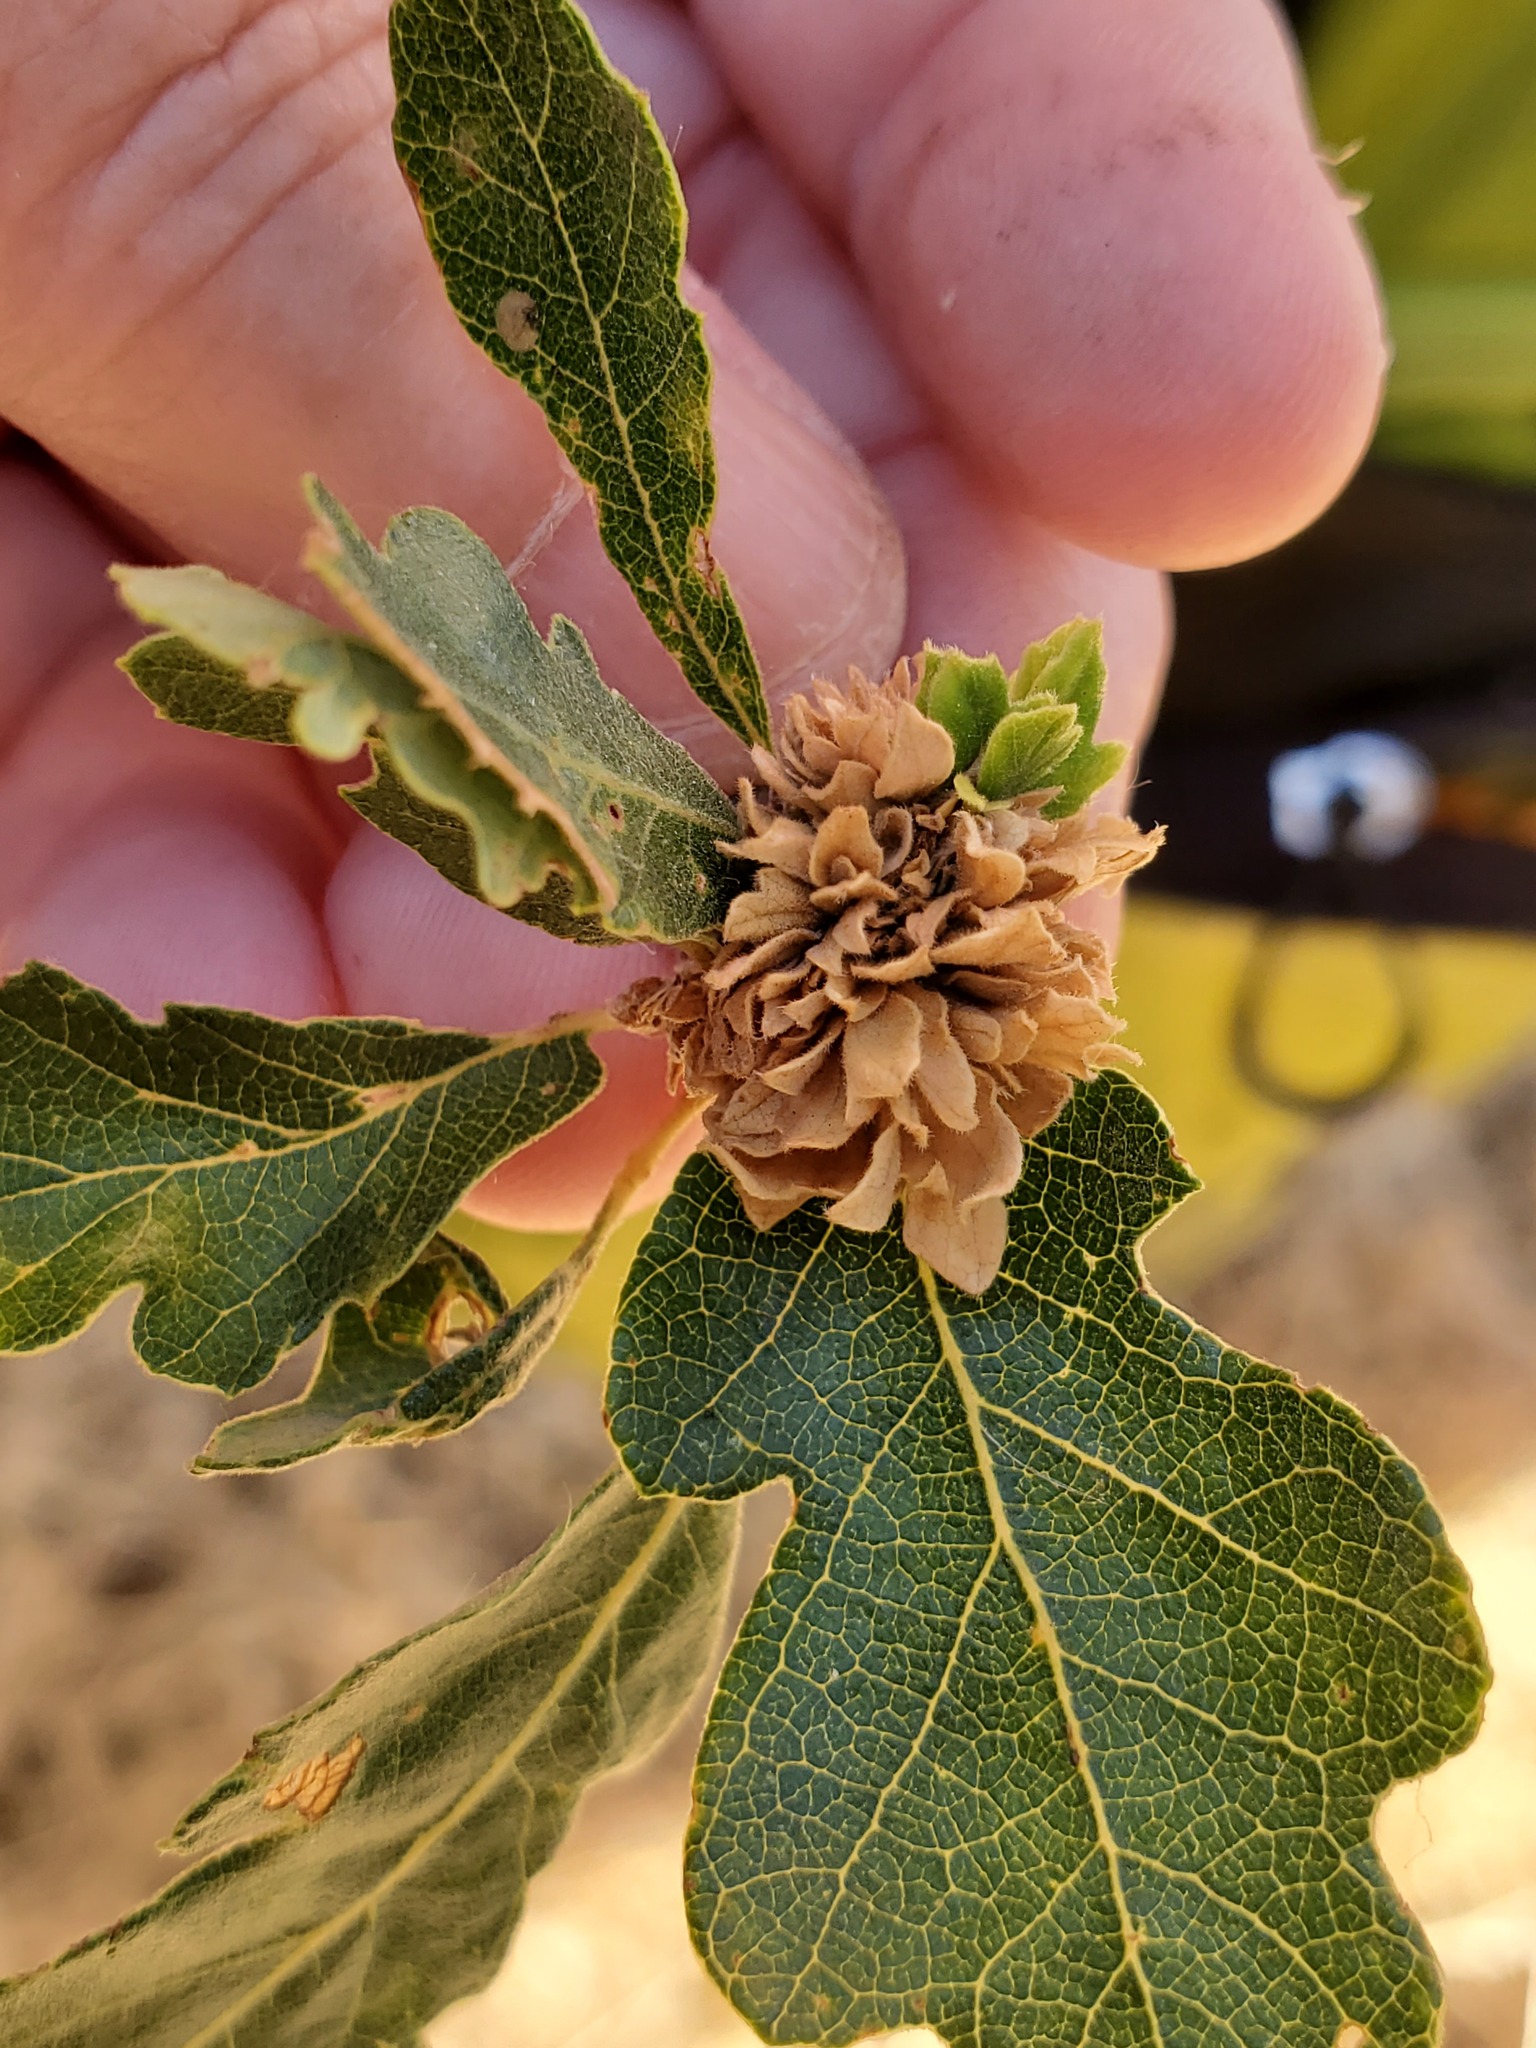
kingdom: Animalia
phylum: Arthropoda
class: Insecta
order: Hymenoptera
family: Cynipidae
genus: Andricus
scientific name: Andricus
